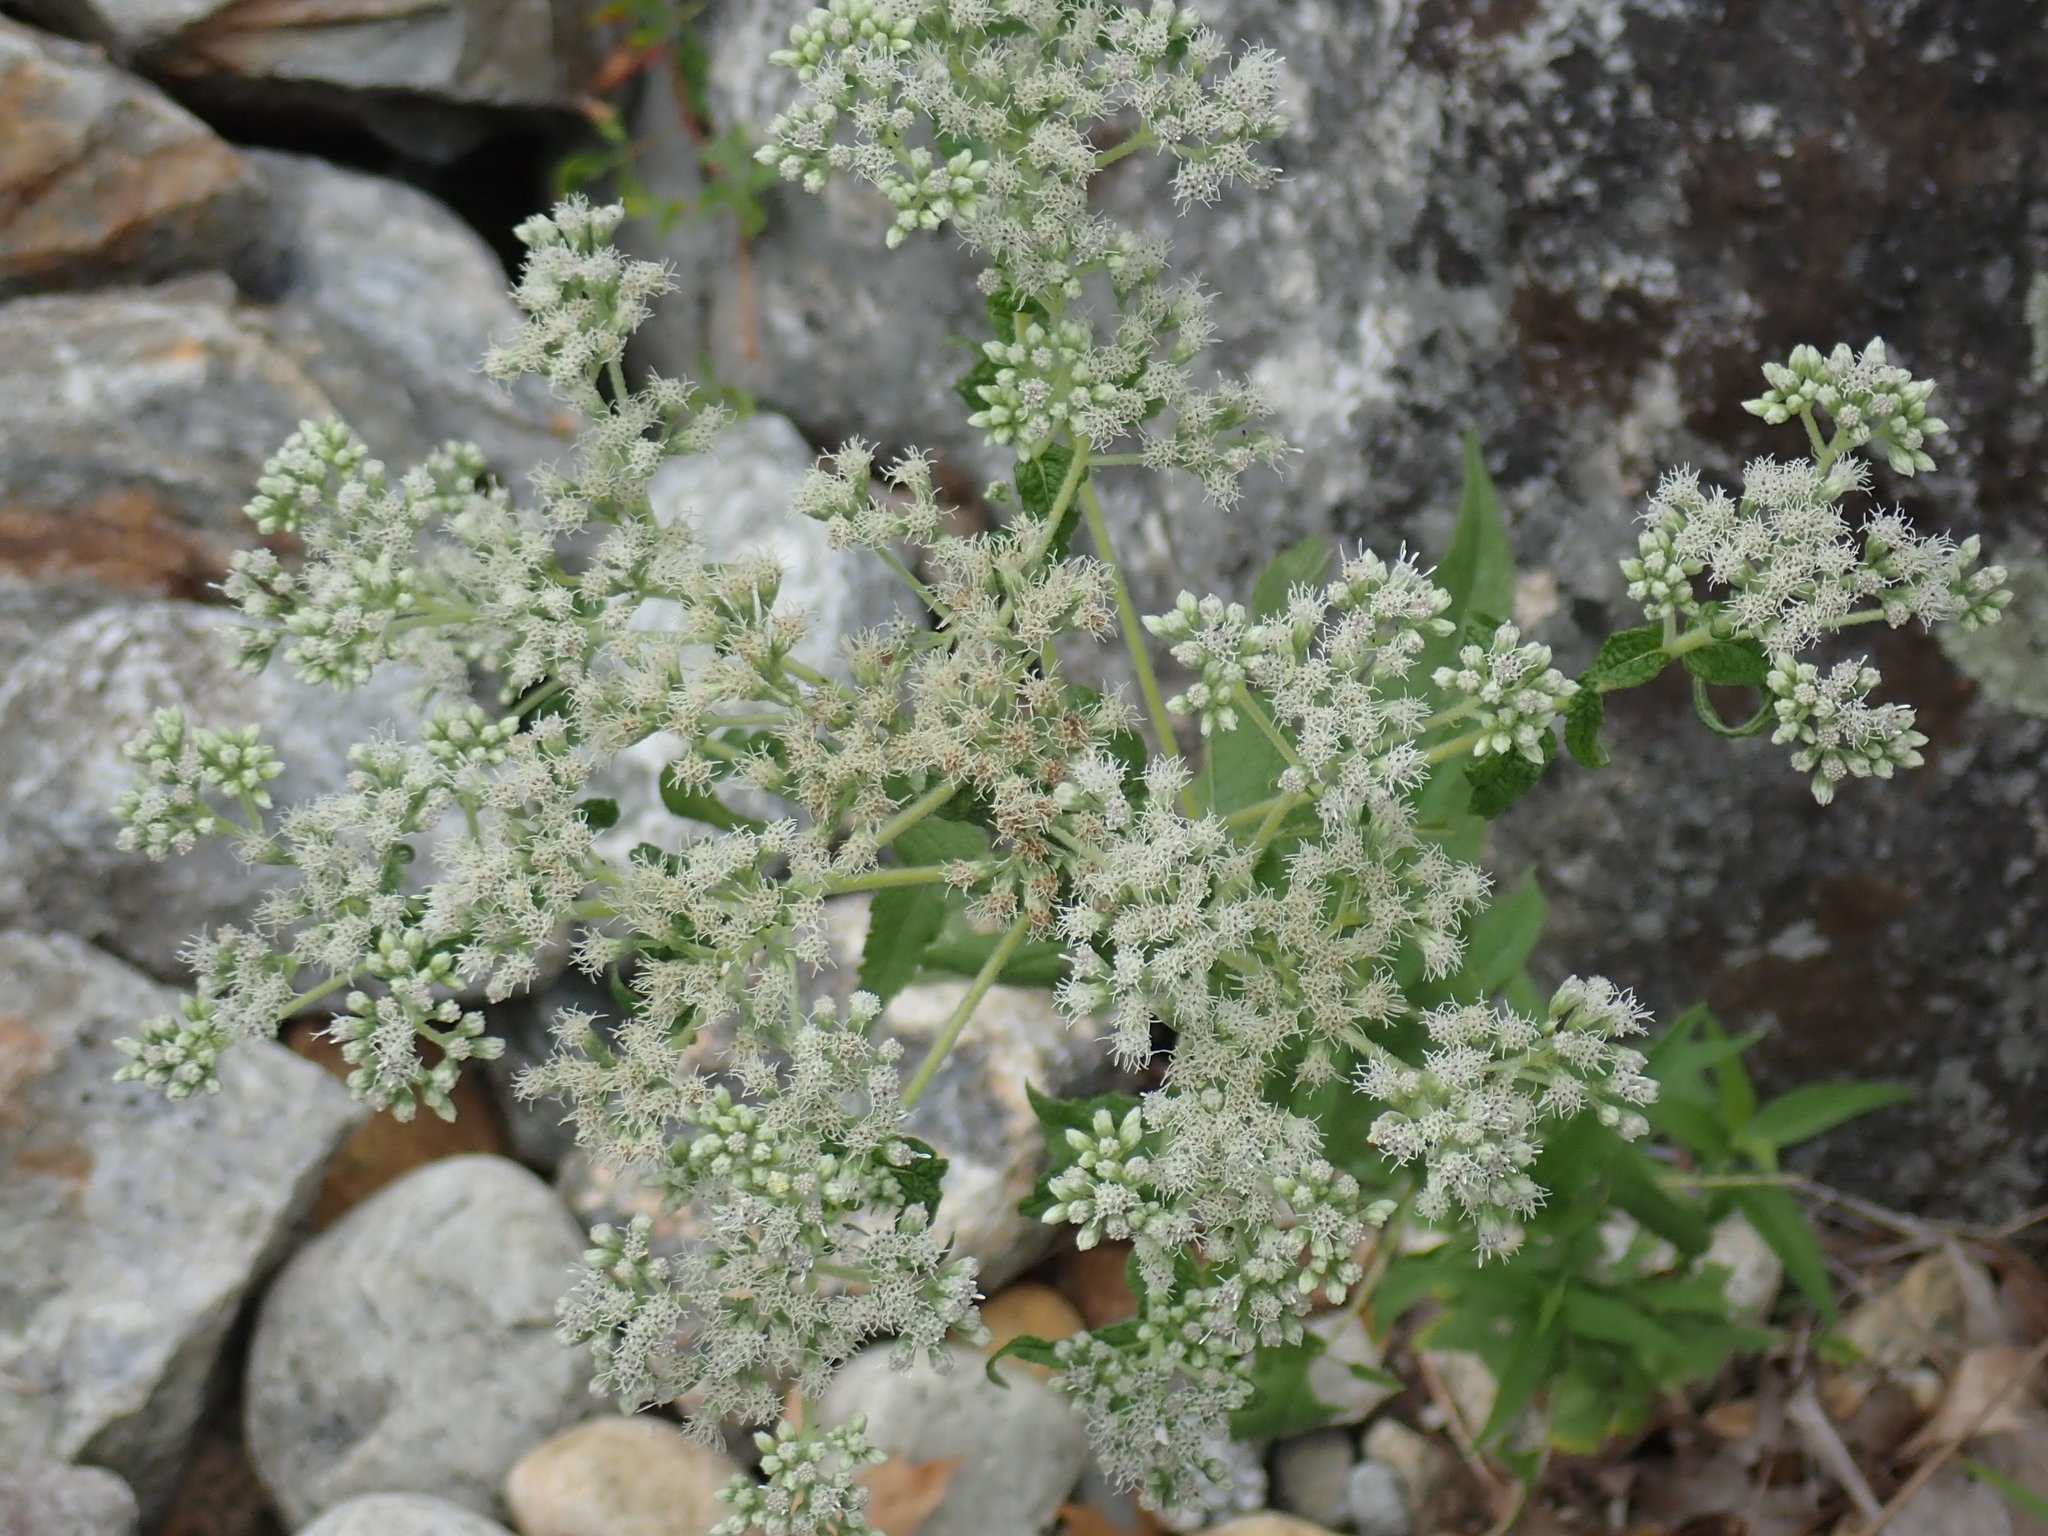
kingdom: Plantae
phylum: Tracheophyta
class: Magnoliopsida
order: Asterales
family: Asteraceae
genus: Eupatorium
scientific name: Eupatorium perfoliatum
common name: Boneset
